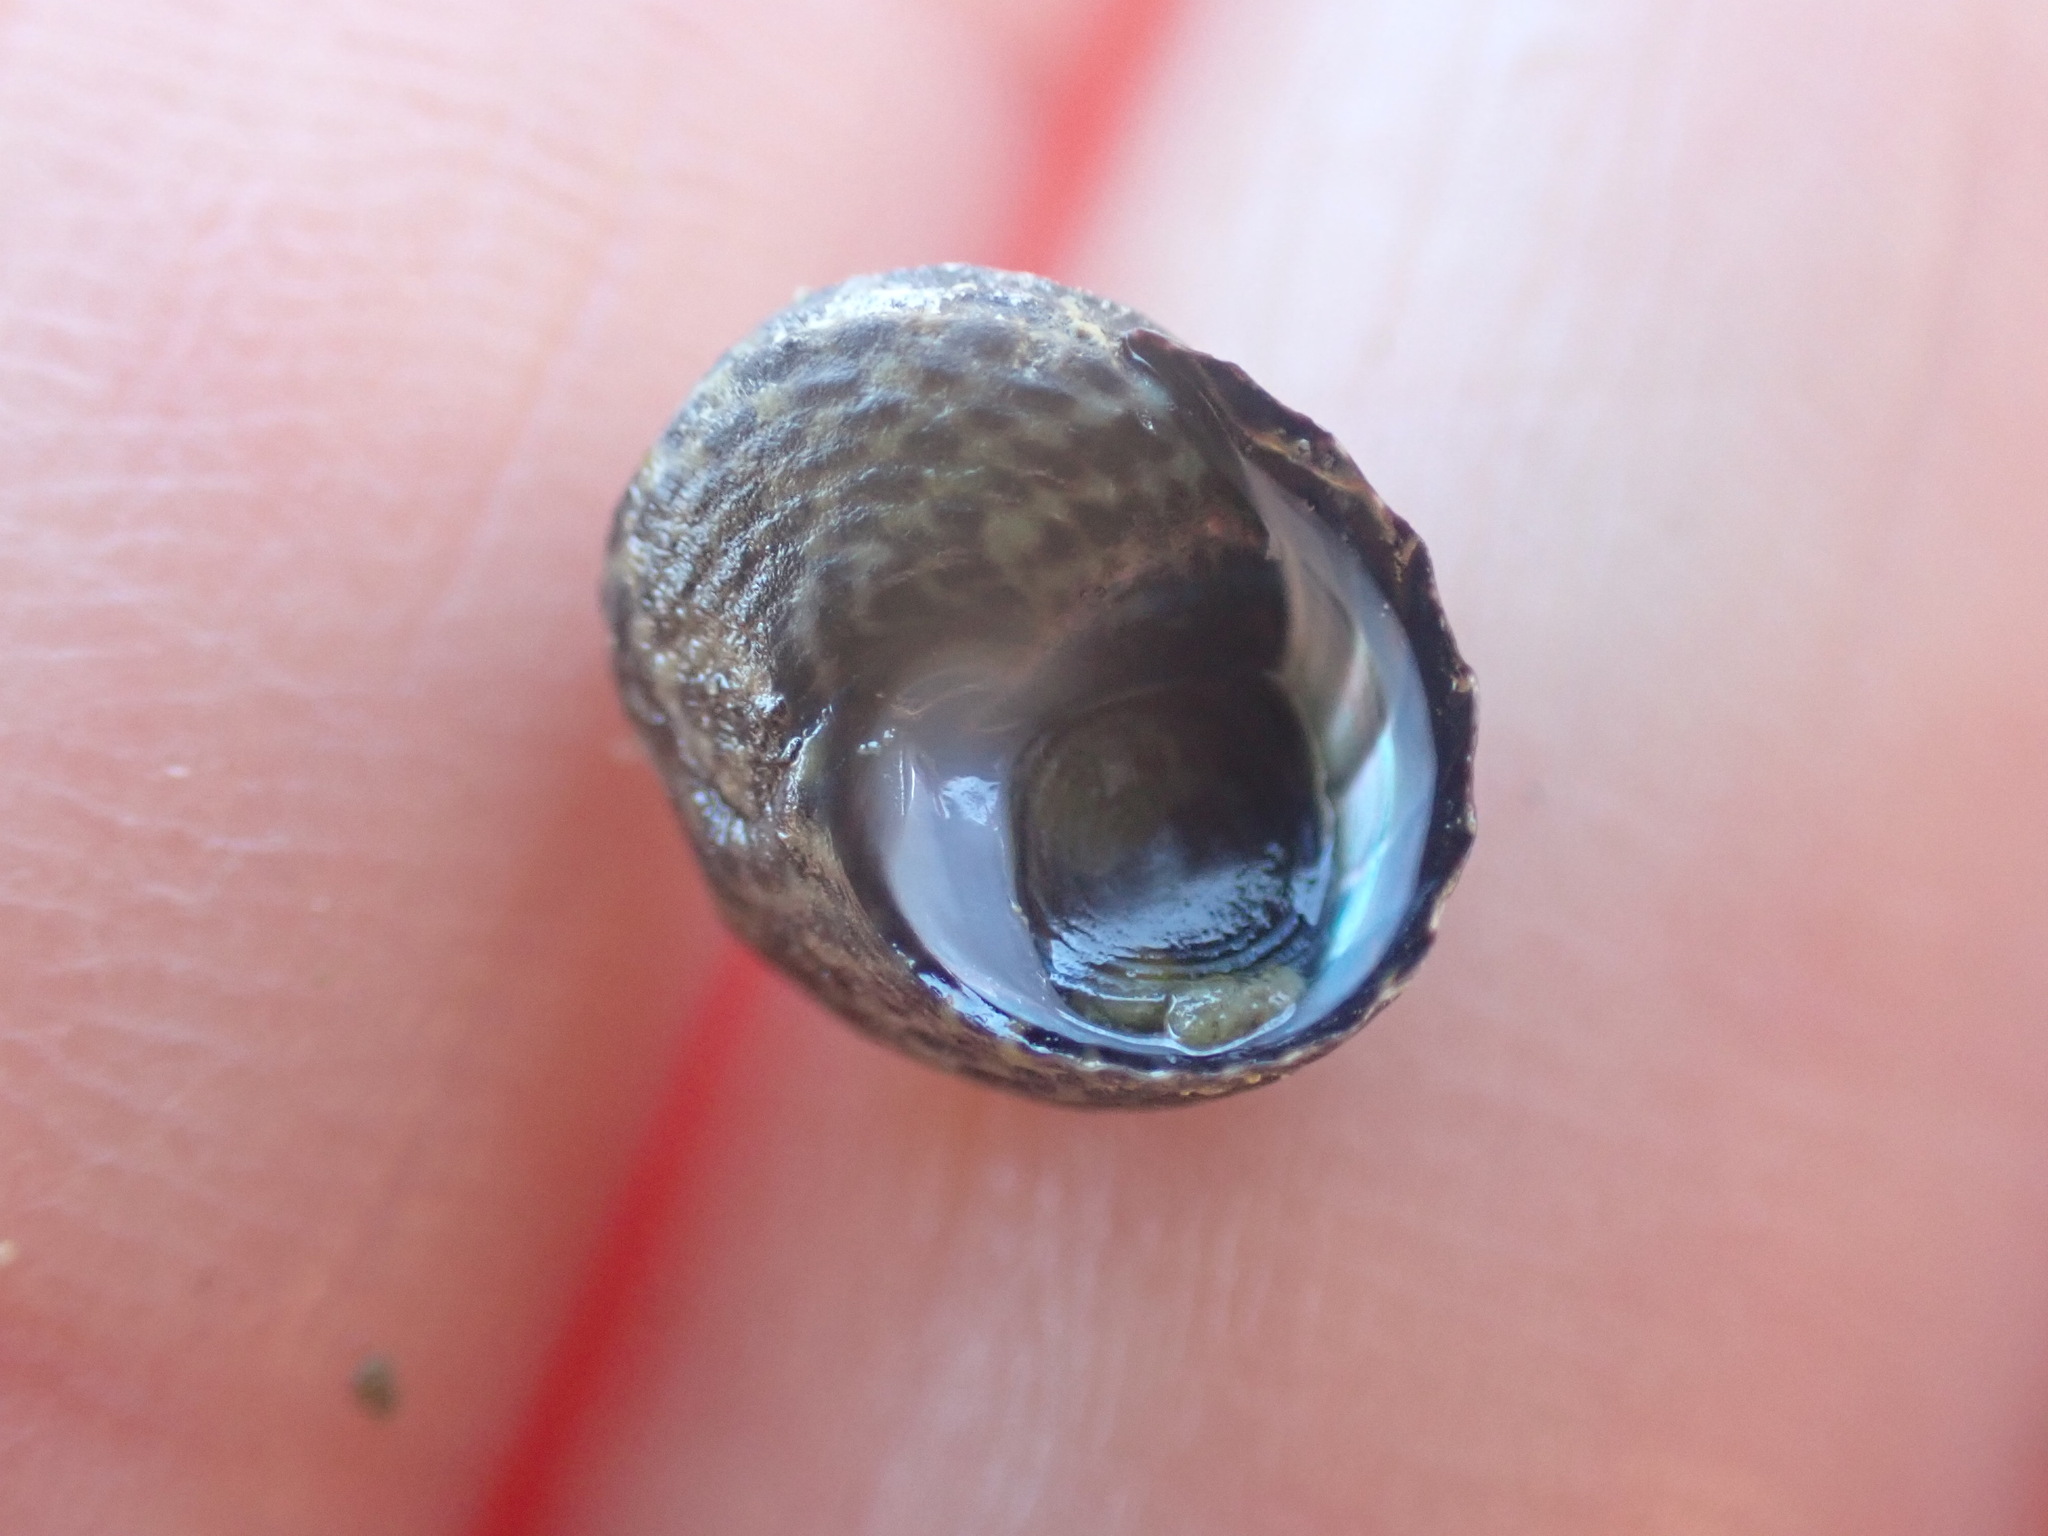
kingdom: Animalia
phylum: Mollusca
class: Gastropoda
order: Trochida
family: Trochidae
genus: Diloma
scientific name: Diloma subrostratum
